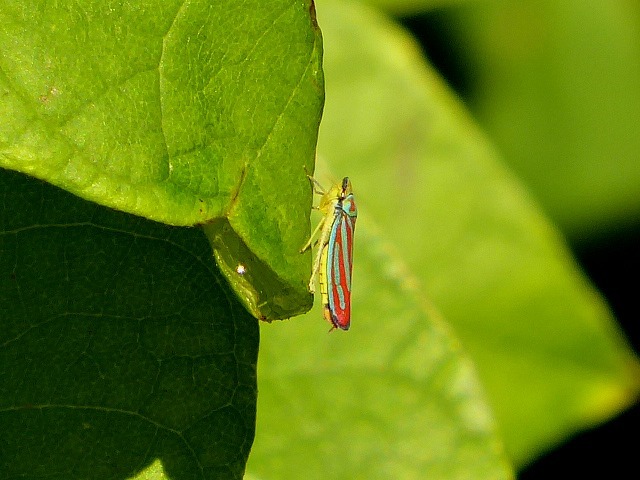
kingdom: Animalia
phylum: Arthropoda
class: Insecta
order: Hemiptera
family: Cicadellidae
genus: Graphocephala
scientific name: Graphocephala coccinea
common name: Candy-striped leafhopper
